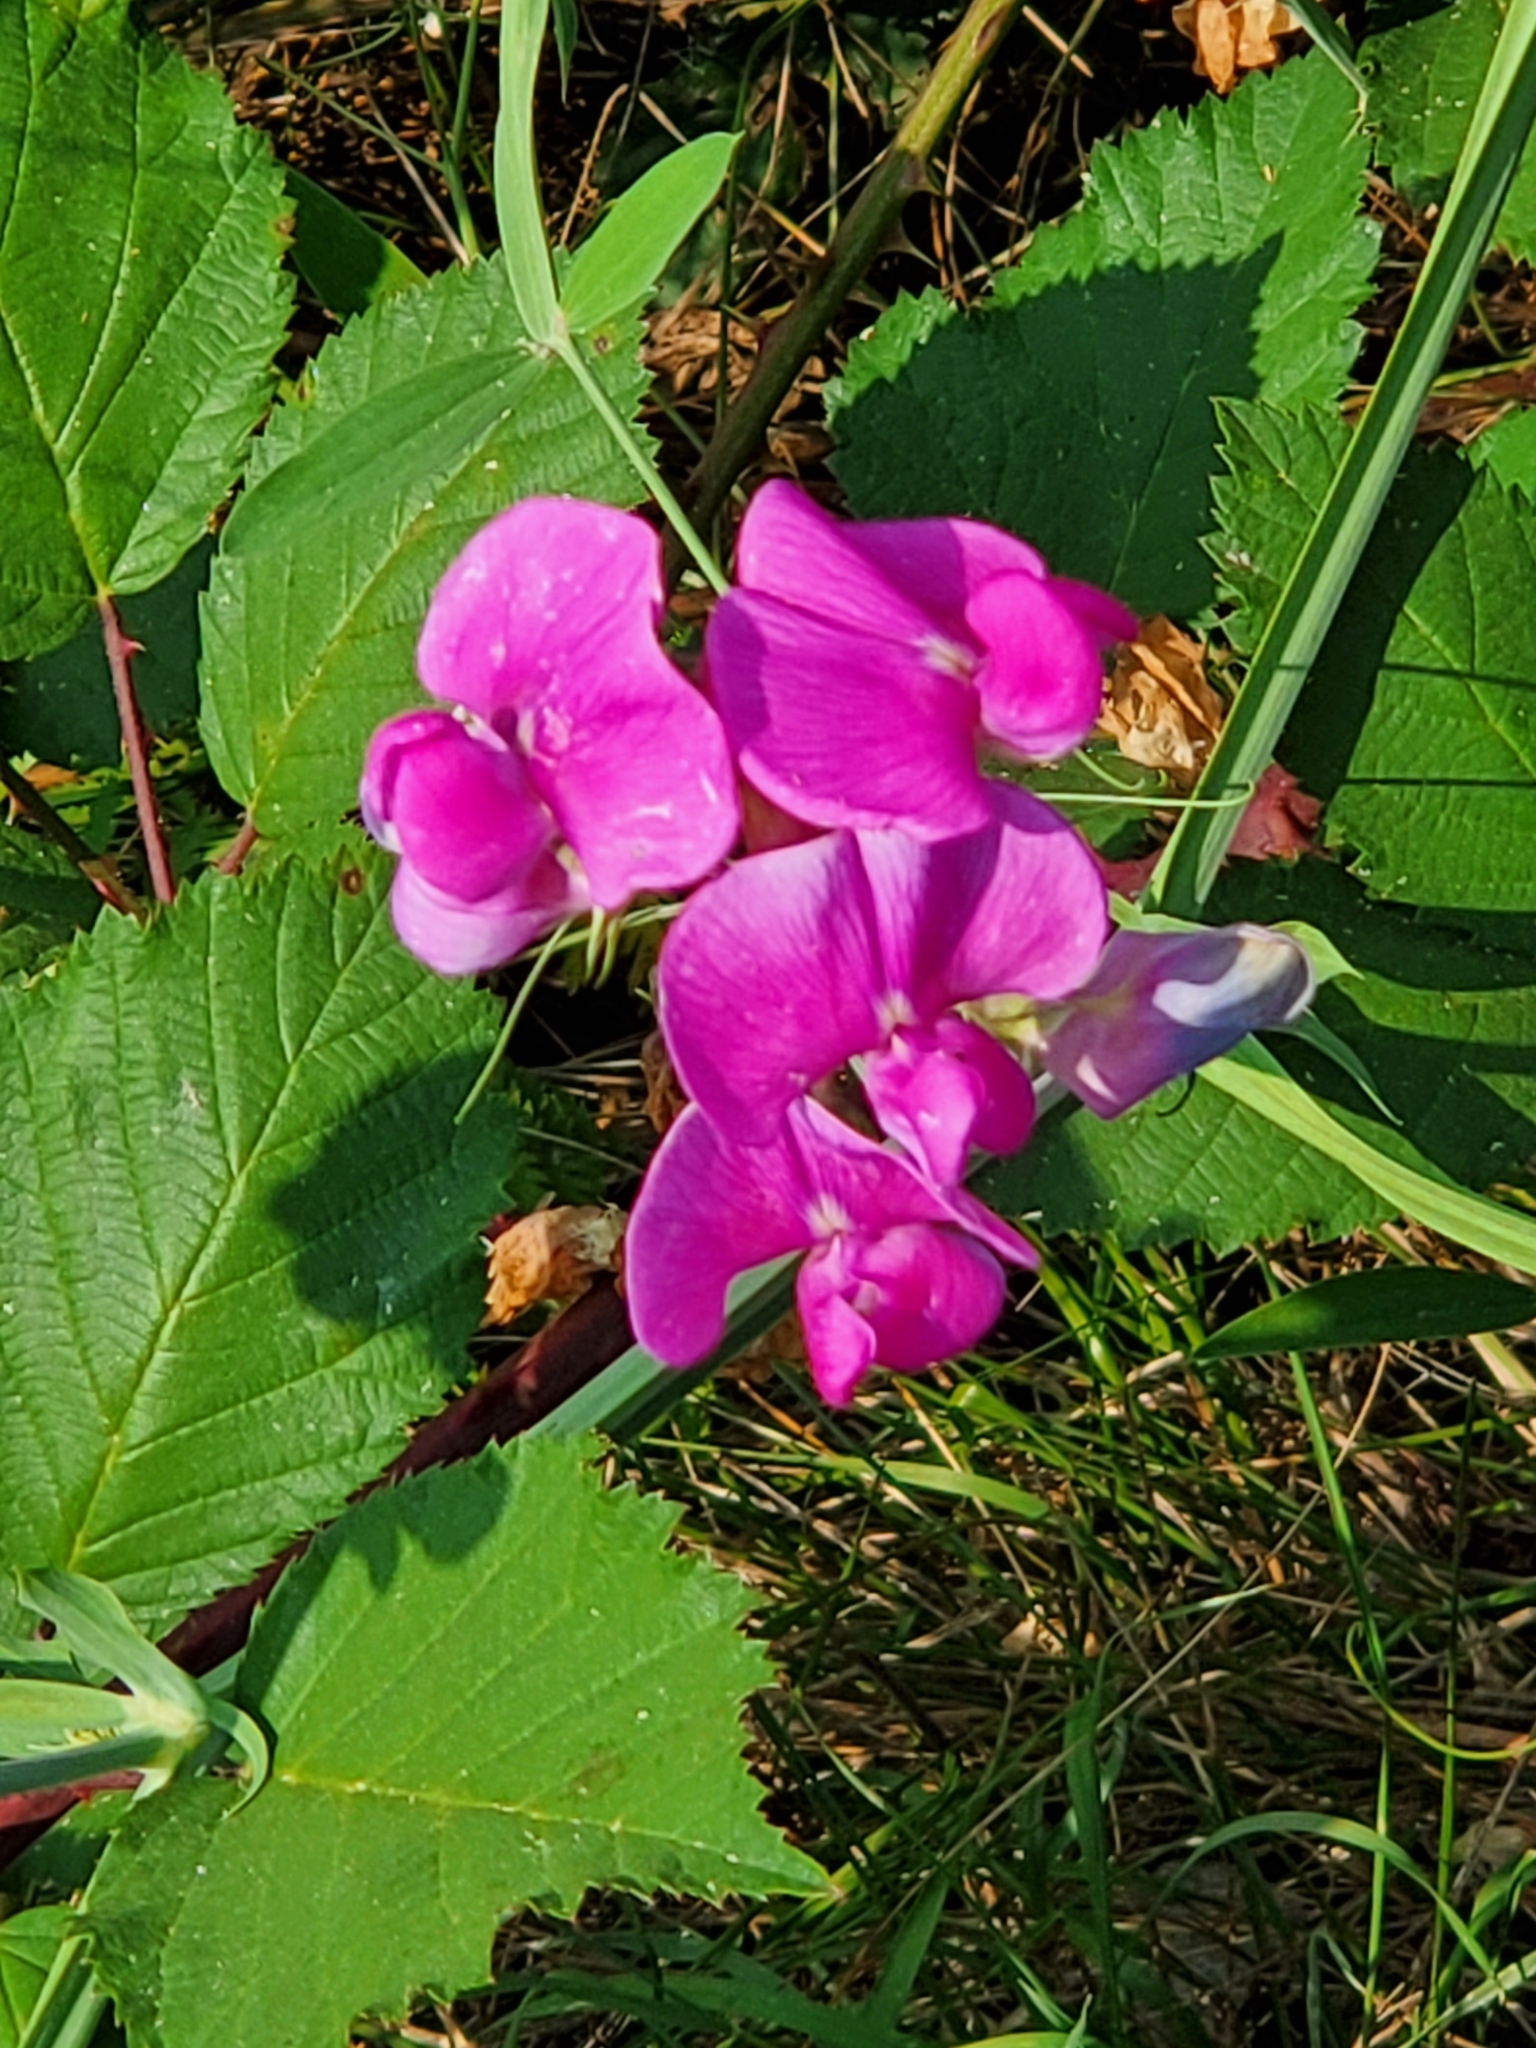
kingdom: Plantae
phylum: Tracheophyta
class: Magnoliopsida
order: Fabales
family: Fabaceae
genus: Lathyrus
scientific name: Lathyrus latifolius
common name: Perennial pea
